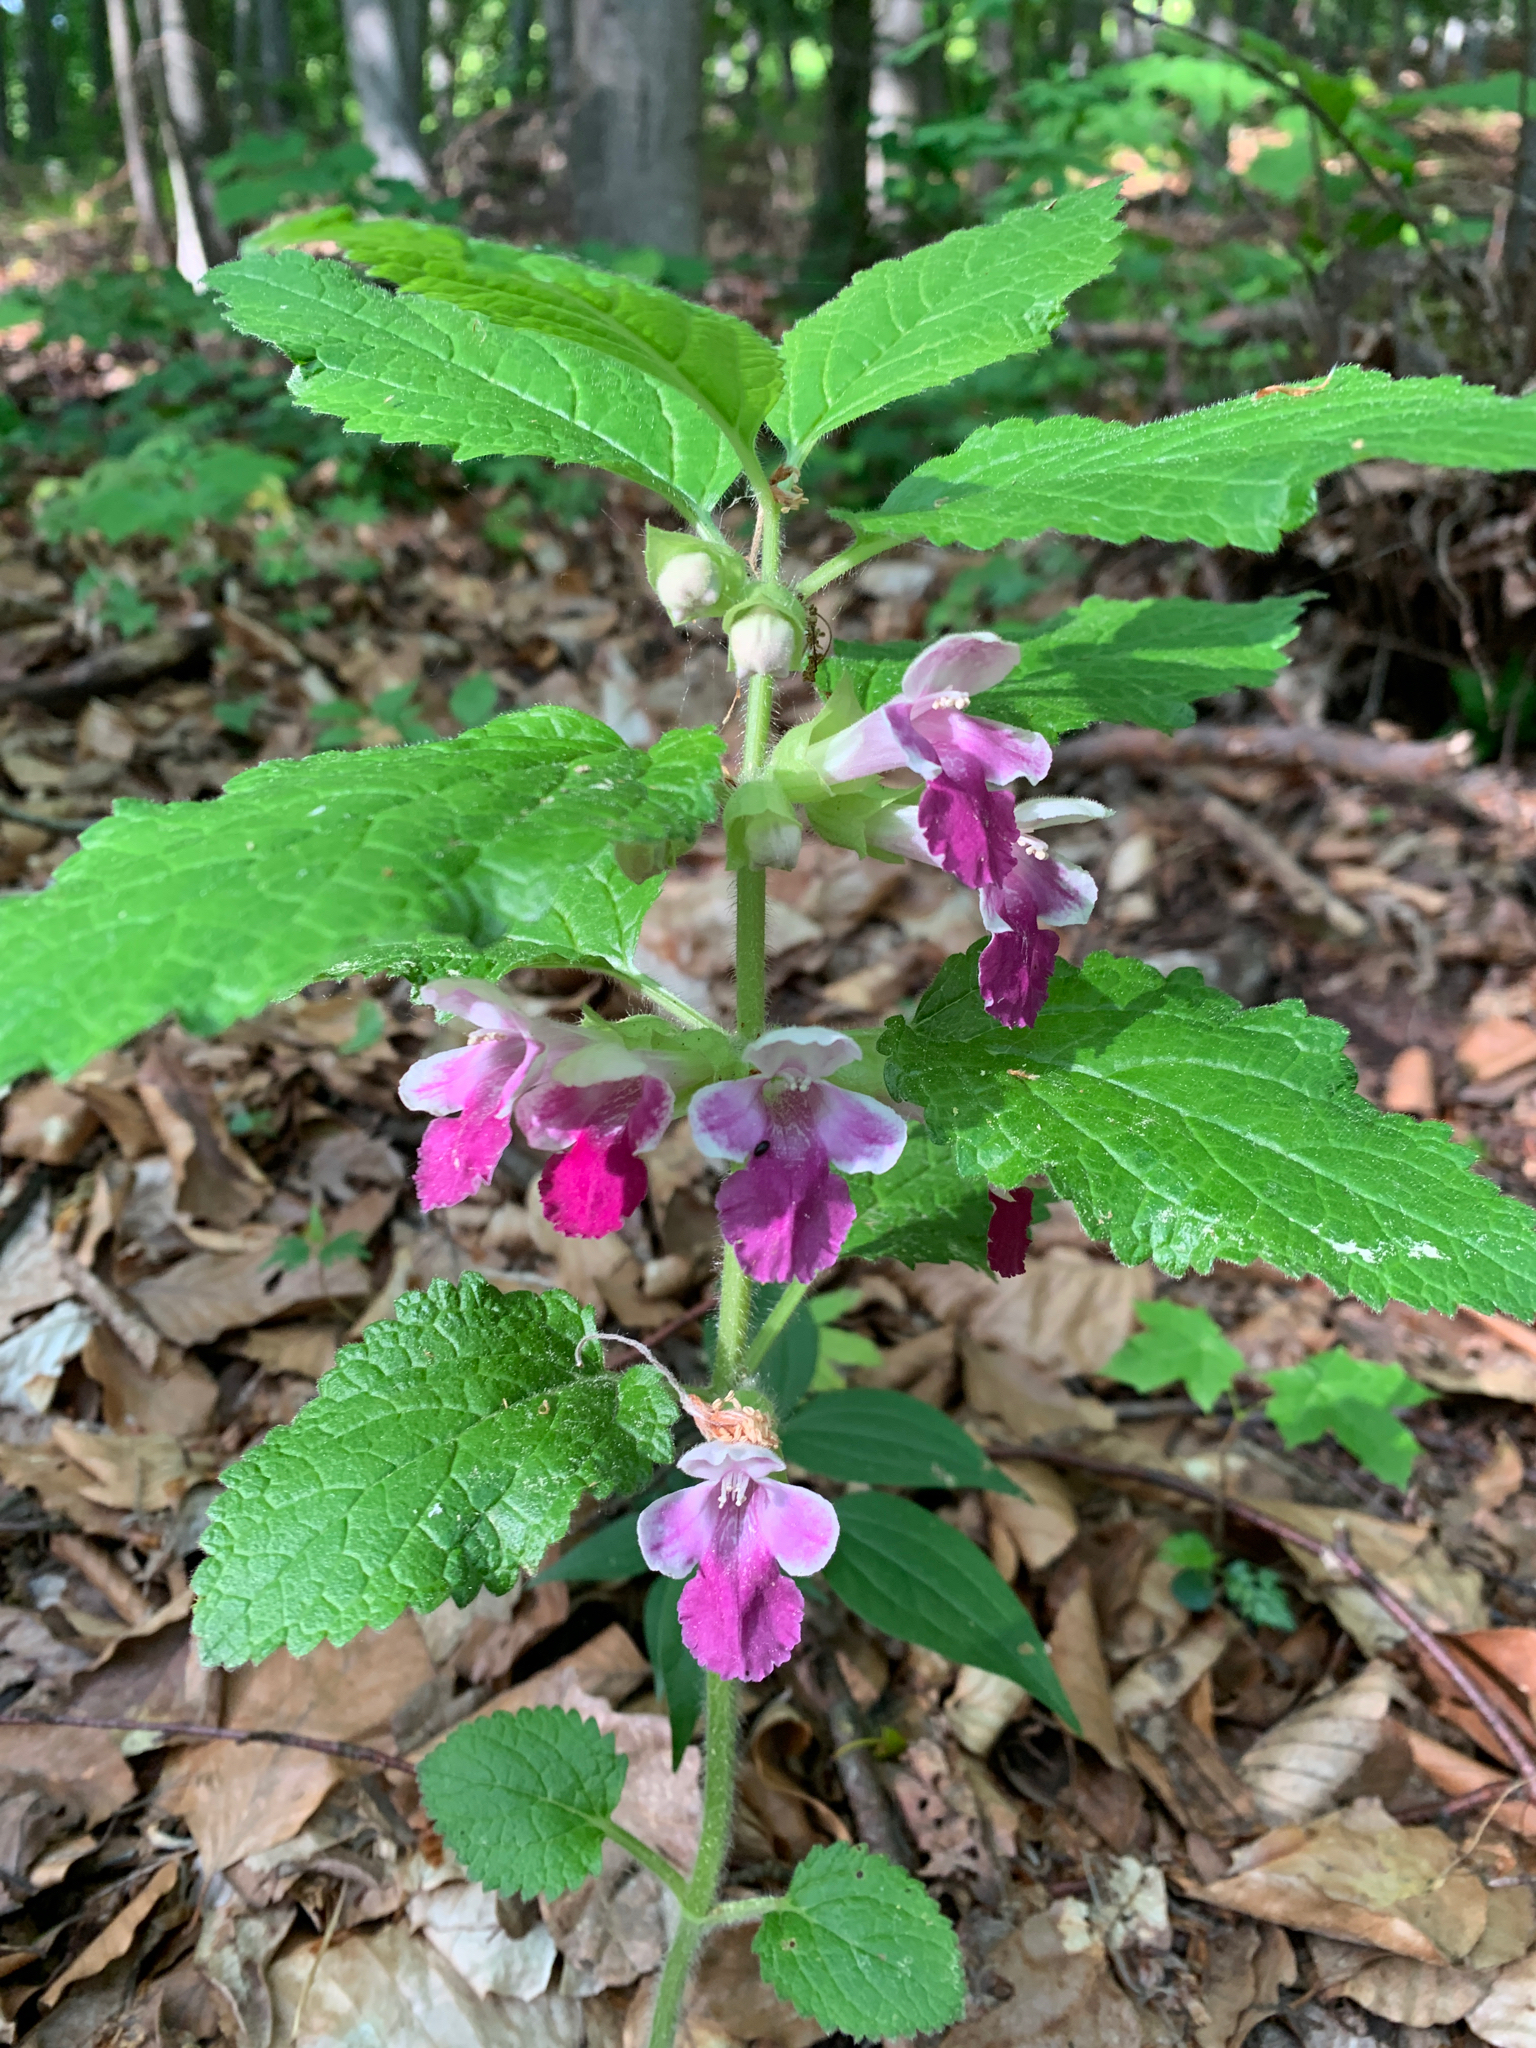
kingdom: Plantae
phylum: Tracheophyta
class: Magnoliopsida
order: Lamiales
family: Lamiaceae
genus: Melittis
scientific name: Melittis melissophyllum
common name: Bastard balm
